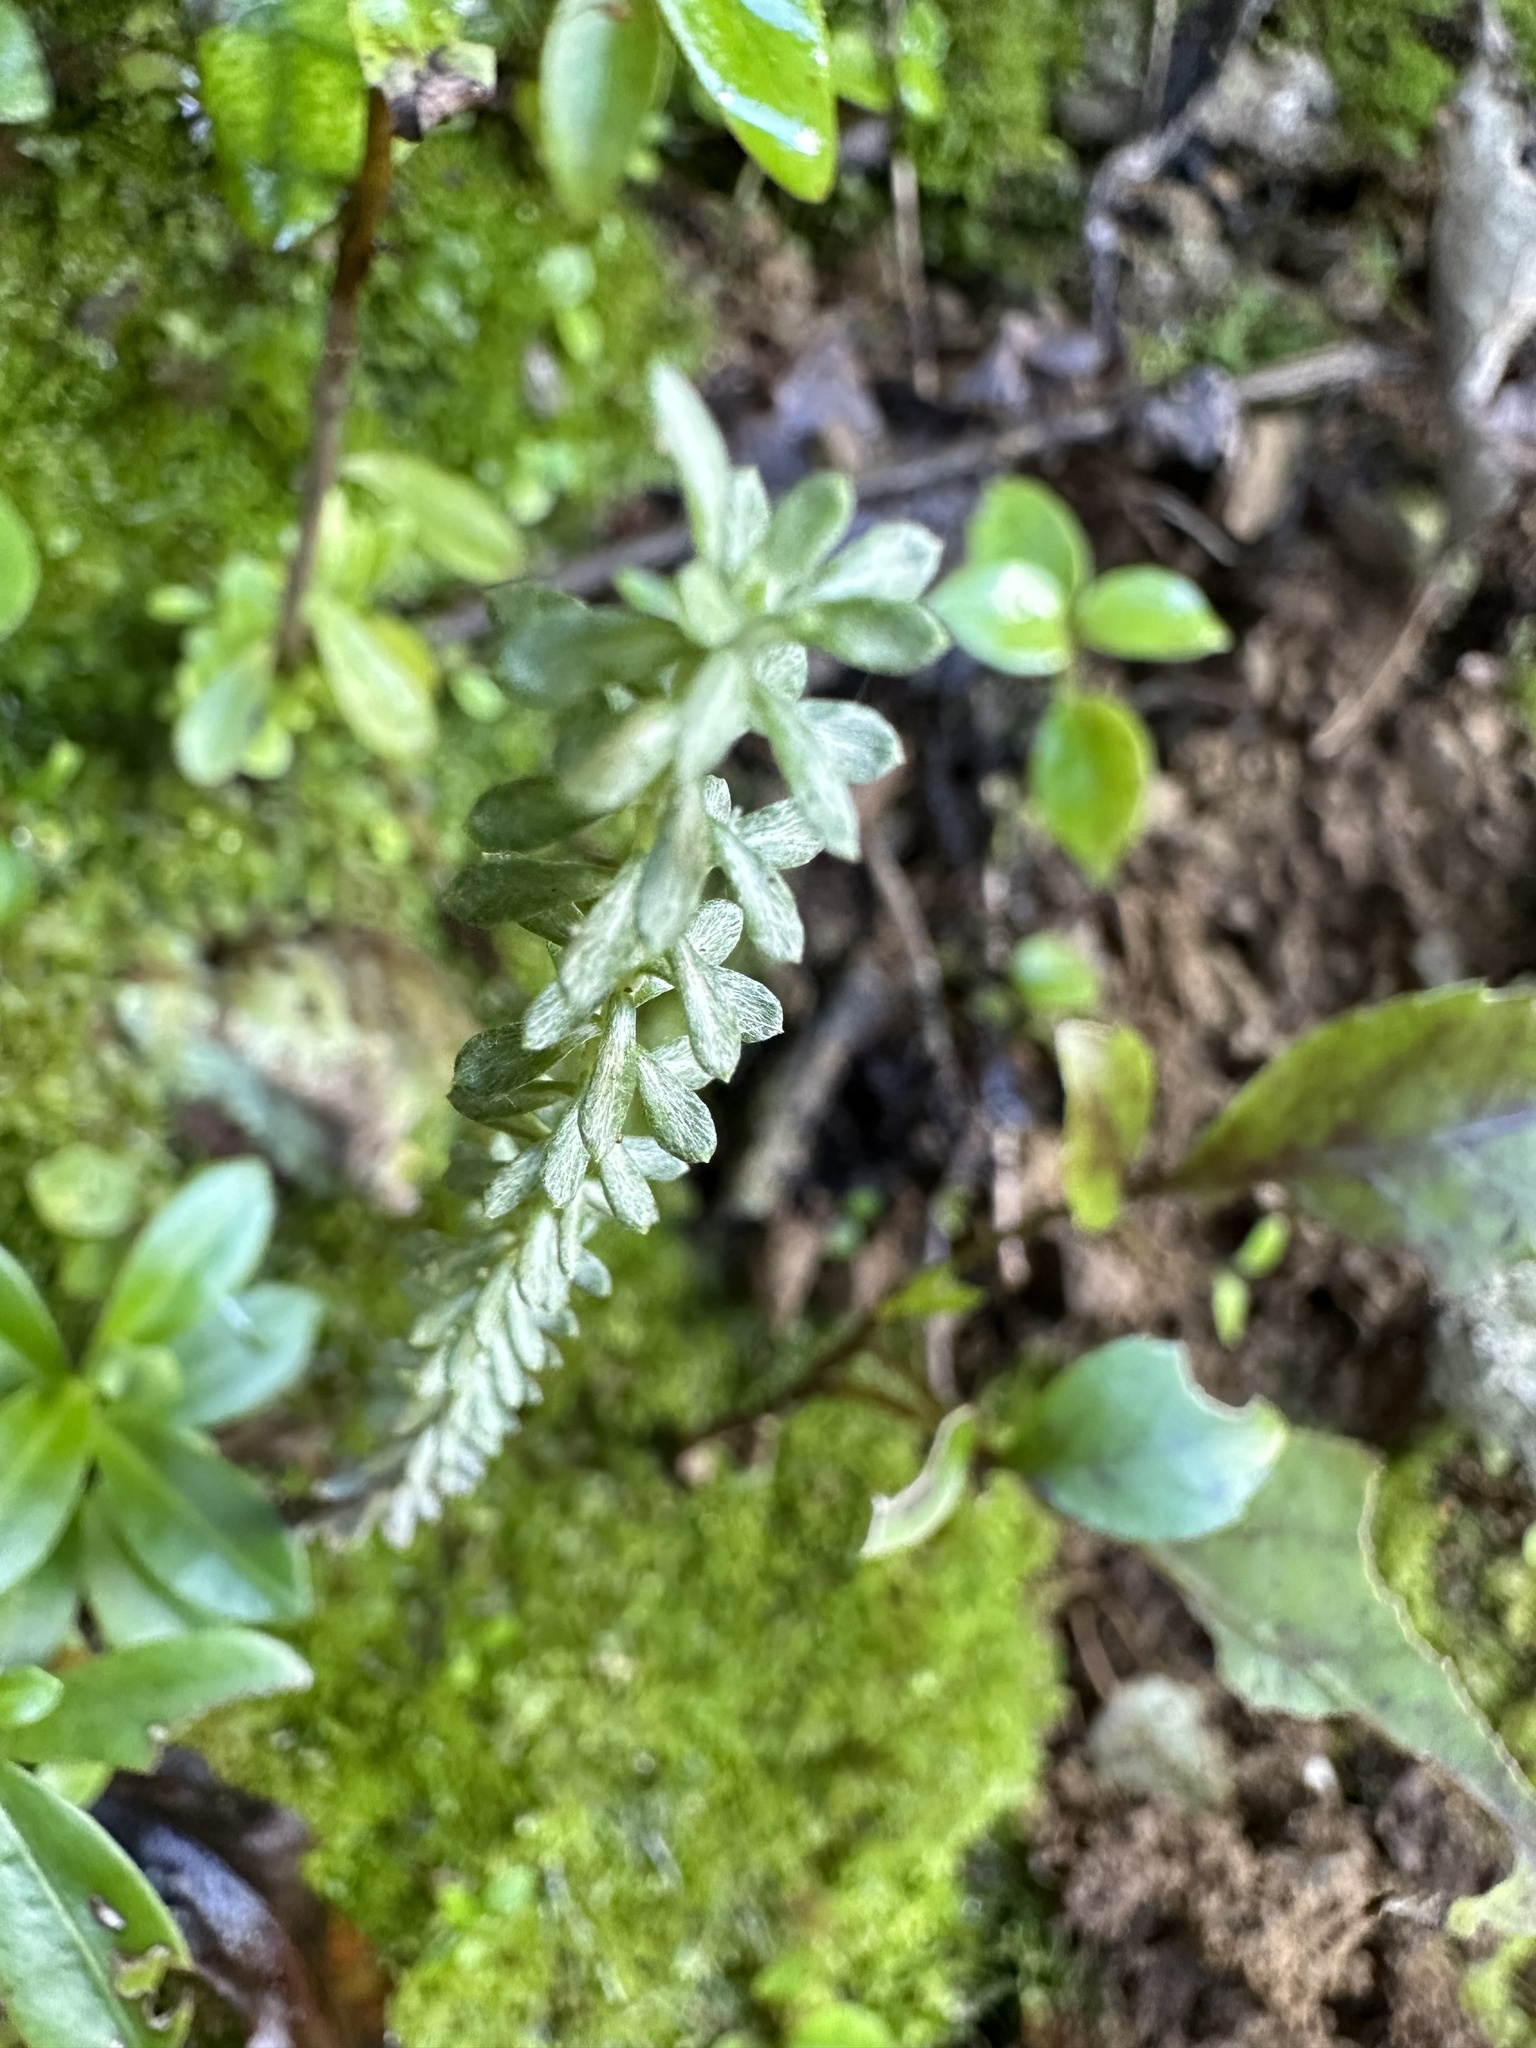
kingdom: Plantae
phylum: Tracheophyta
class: Magnoliopsida
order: Asterales
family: Asteraceae
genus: Ozothamnus
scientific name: Ozothamnus leptophyllus
